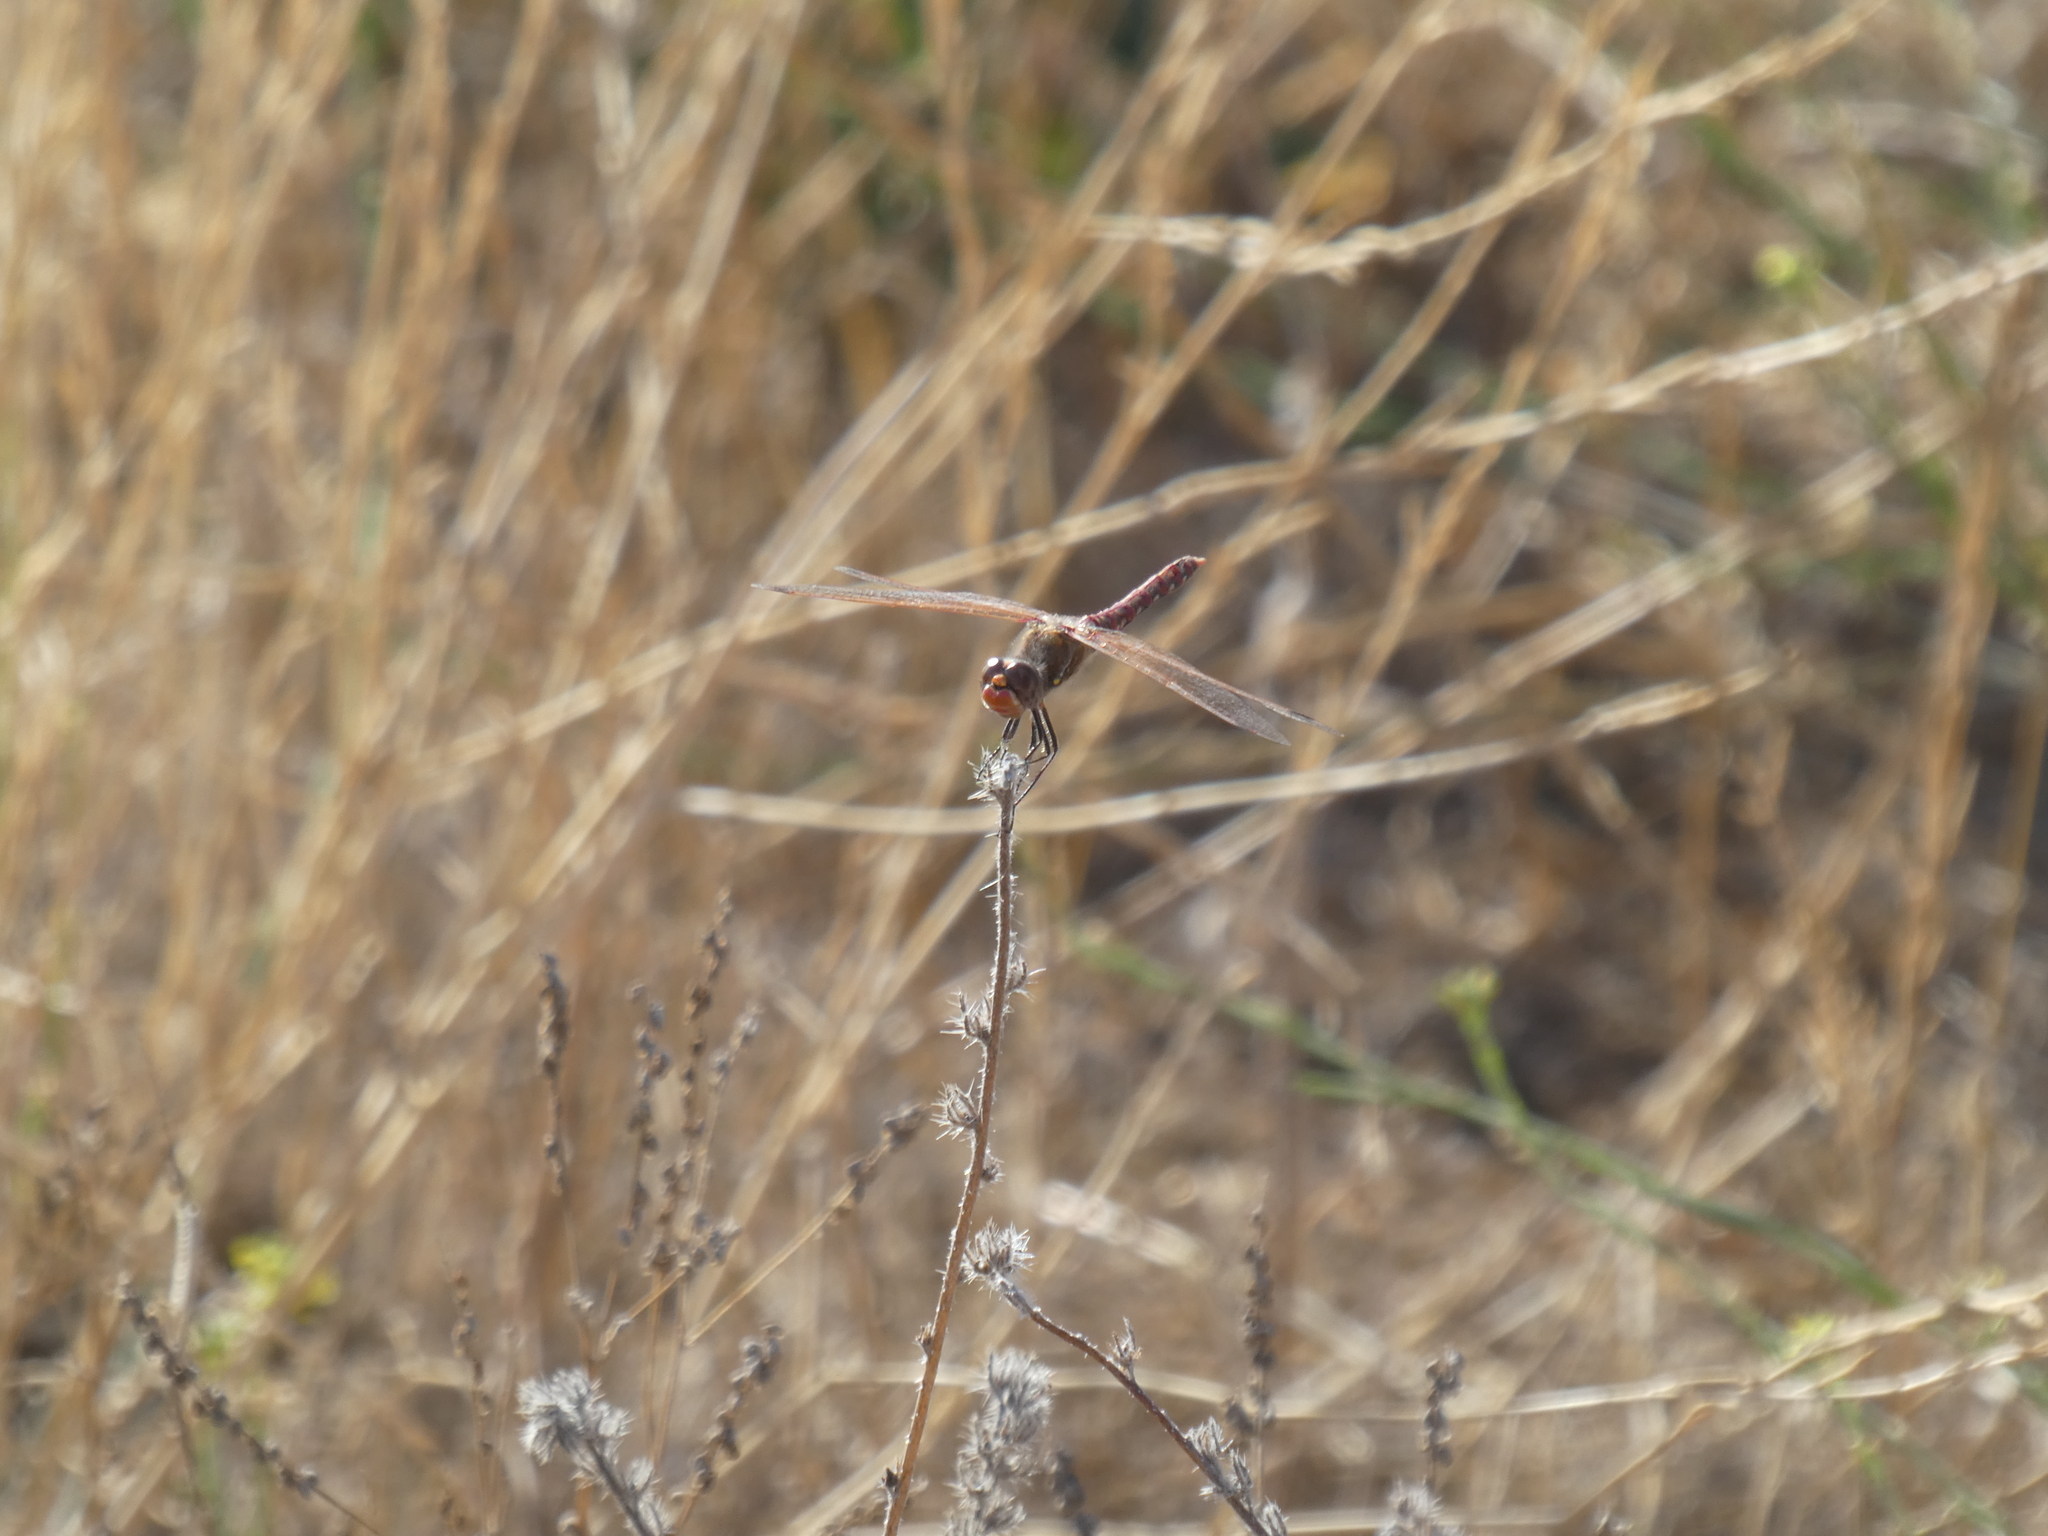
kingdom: Animalia
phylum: Arthropoda
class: Insecta
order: Odonata
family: Libellulidae
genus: Sympetrum
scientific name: Sympetrum corruptum
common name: Variegated meadowhawk
